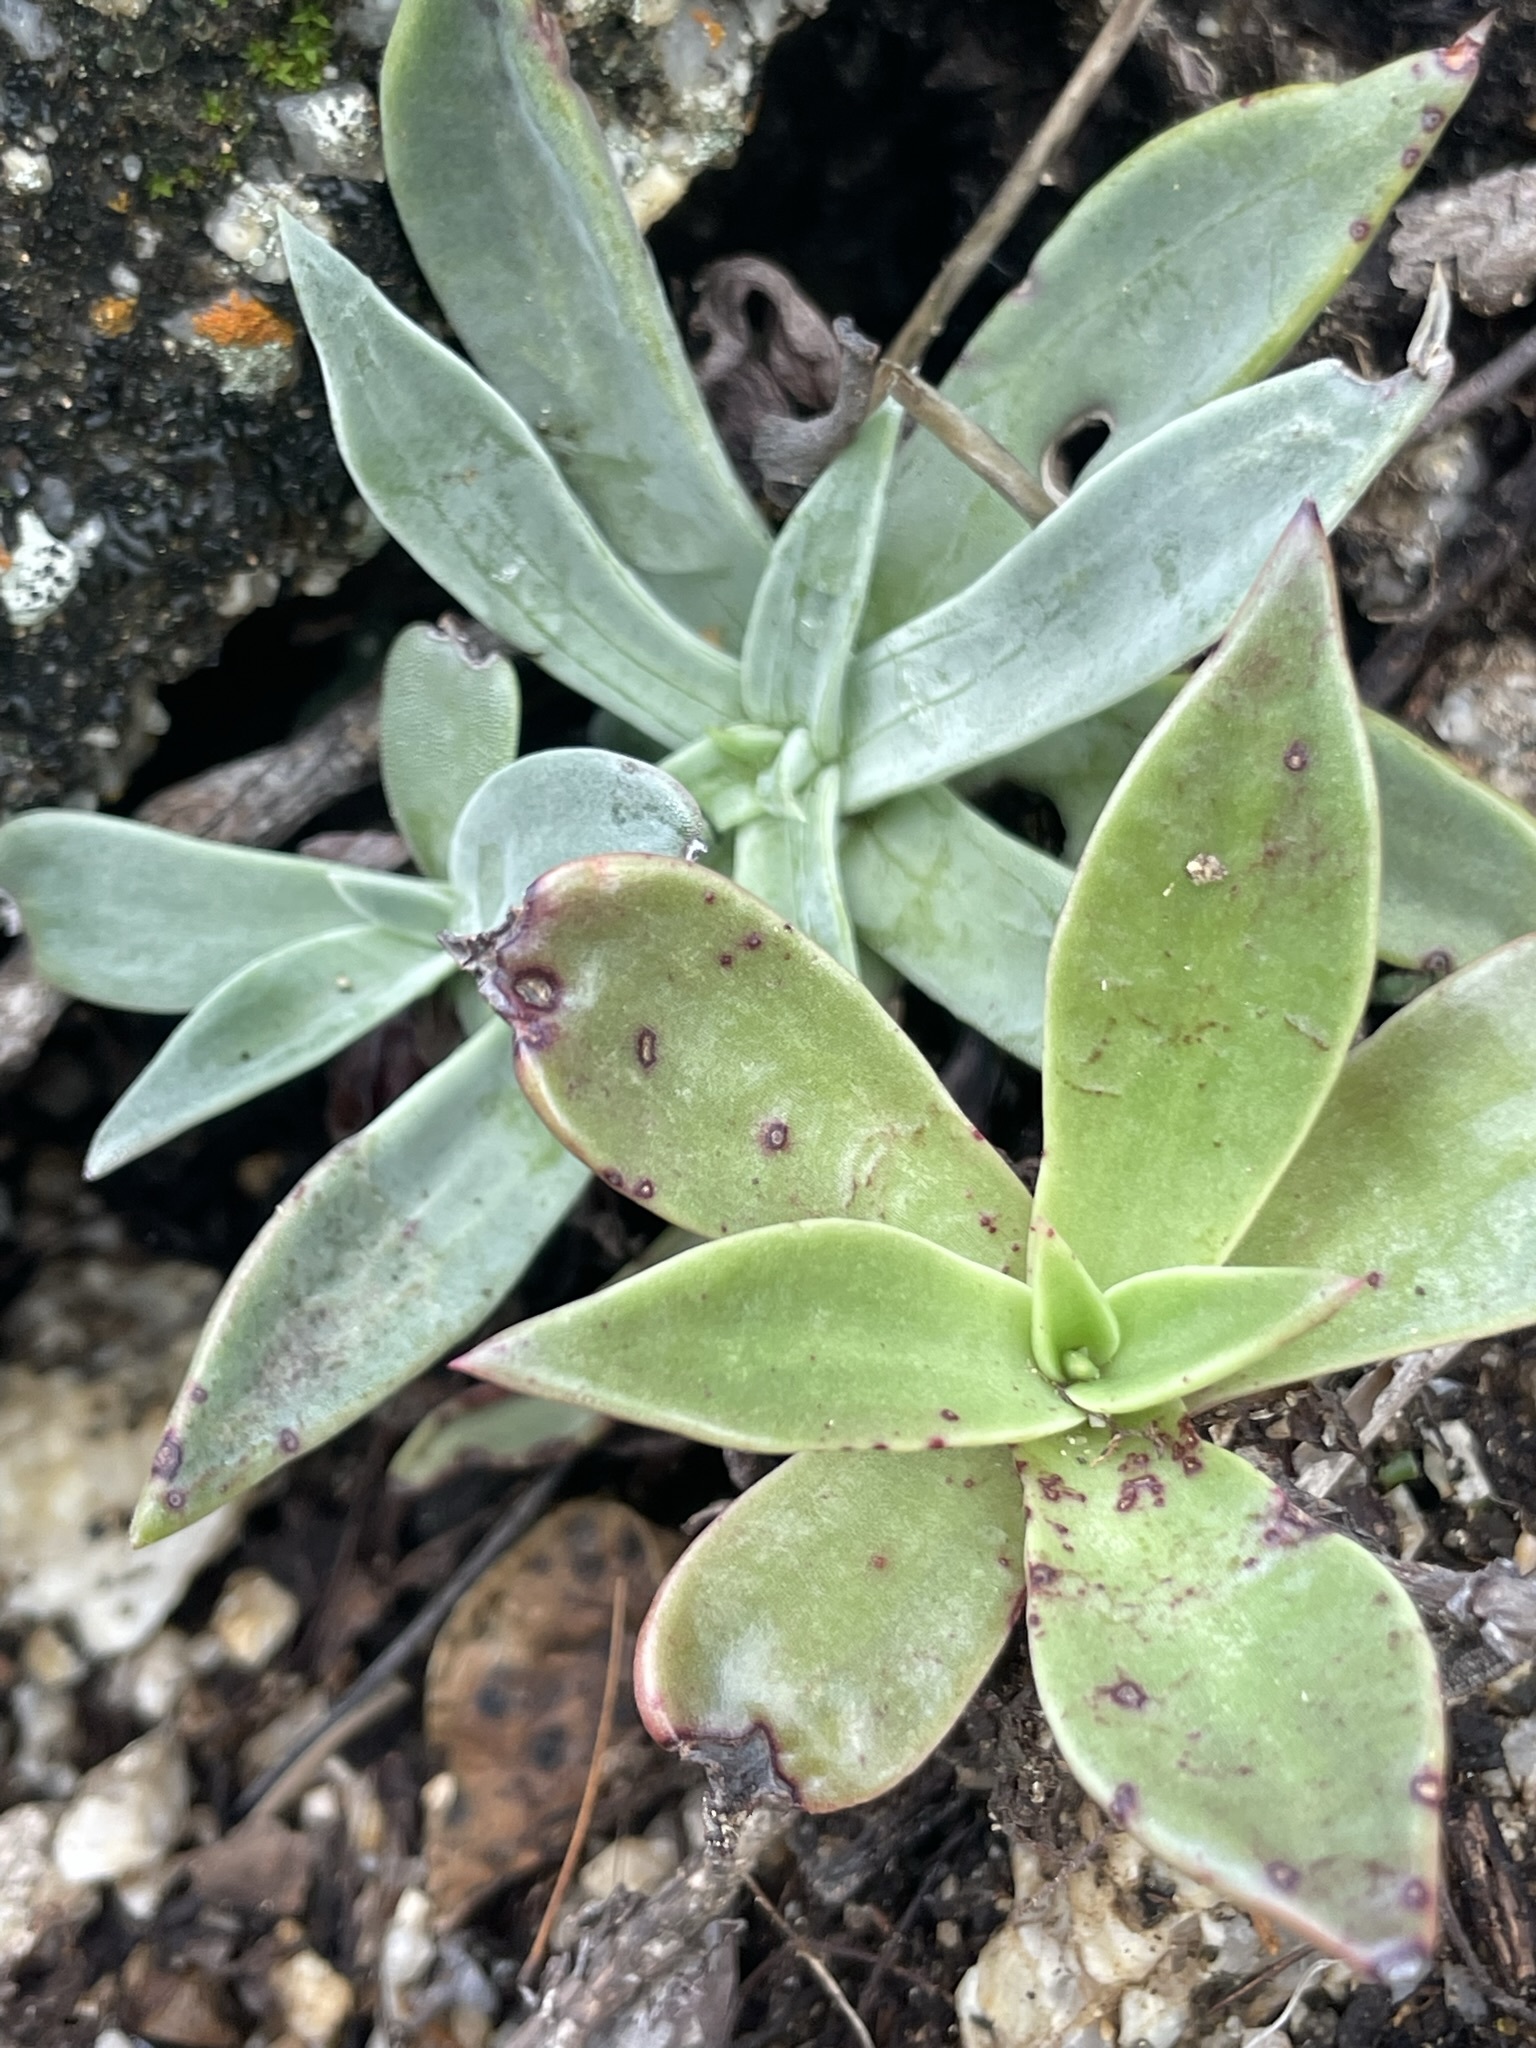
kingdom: Plantae
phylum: Tracheophyta
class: Magnoliopsida
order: Saxifragales
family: Crassulaceae
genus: Dudleya
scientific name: Dudleya nubigena
